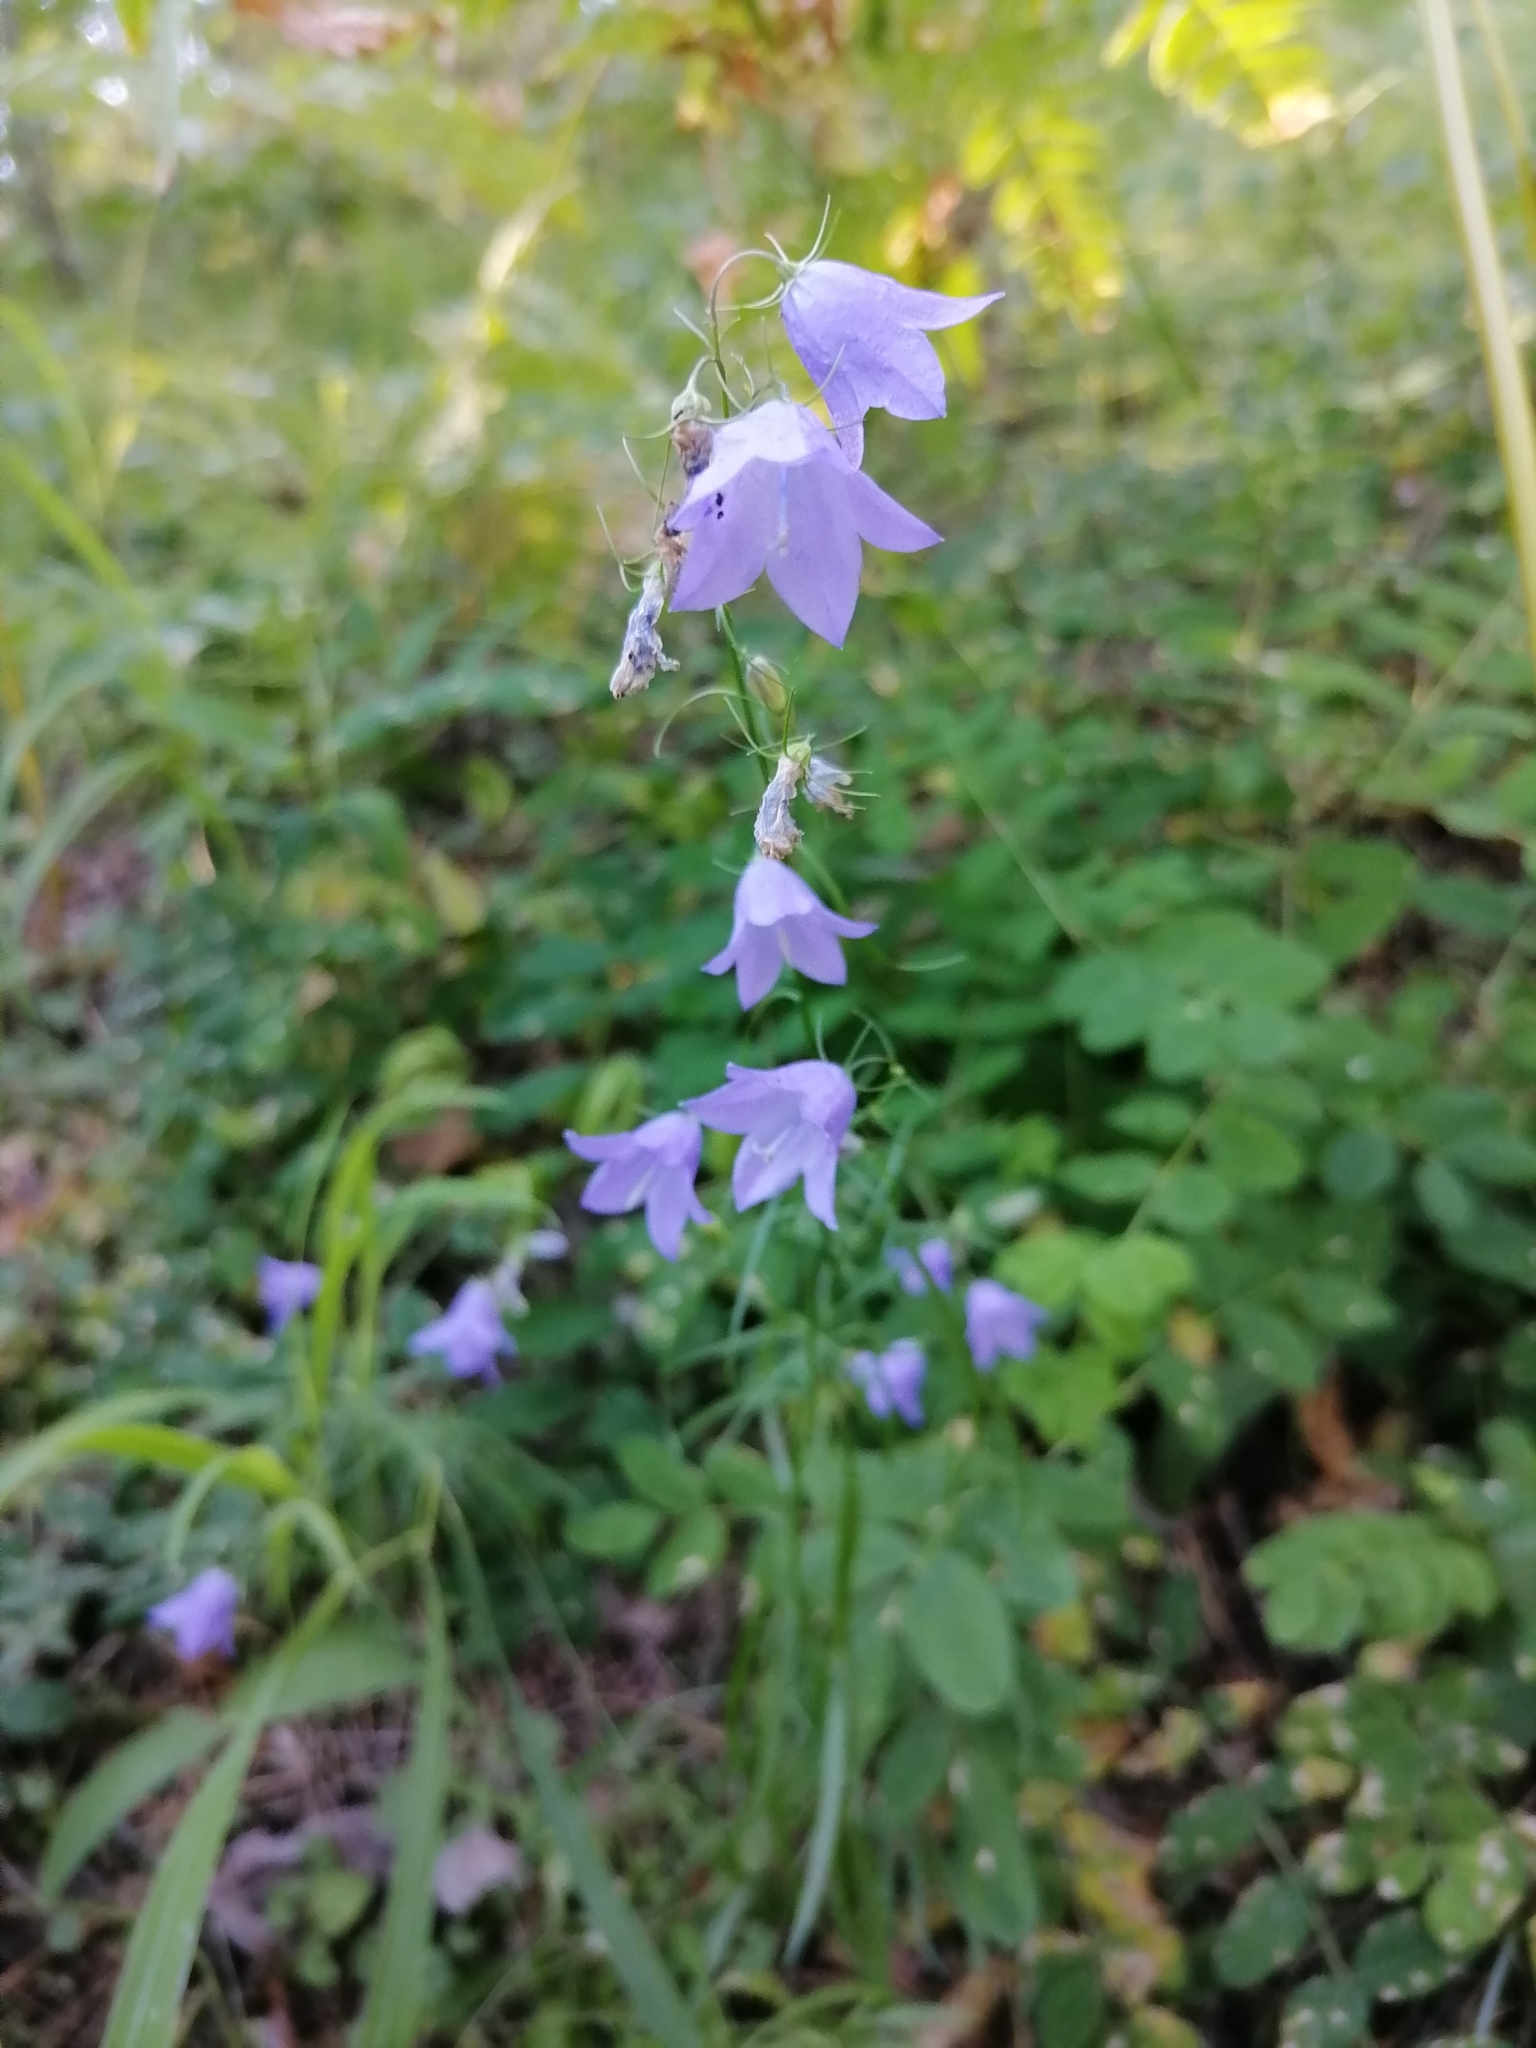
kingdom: Plantae
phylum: Tracheophyta
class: Magnoliopsida
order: Asterales
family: Campanulaceae
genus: Campanula
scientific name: Campanula rotundifolia
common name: Harebell
